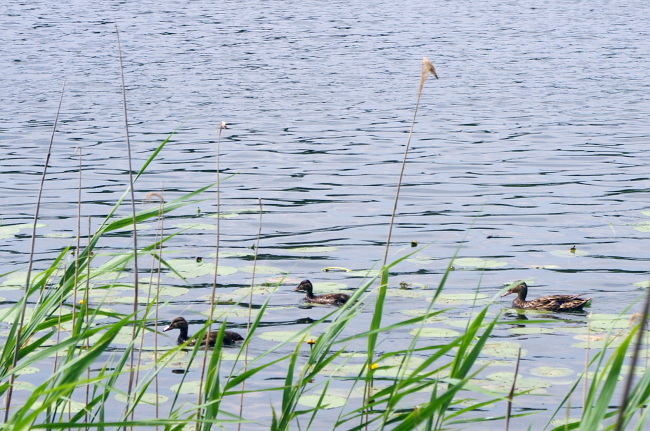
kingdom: Animalia
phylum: Chordata
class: Aves
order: Anseriformes
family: Anatidae
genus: Anas
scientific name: Anas platyrhynchos
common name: Mallard
